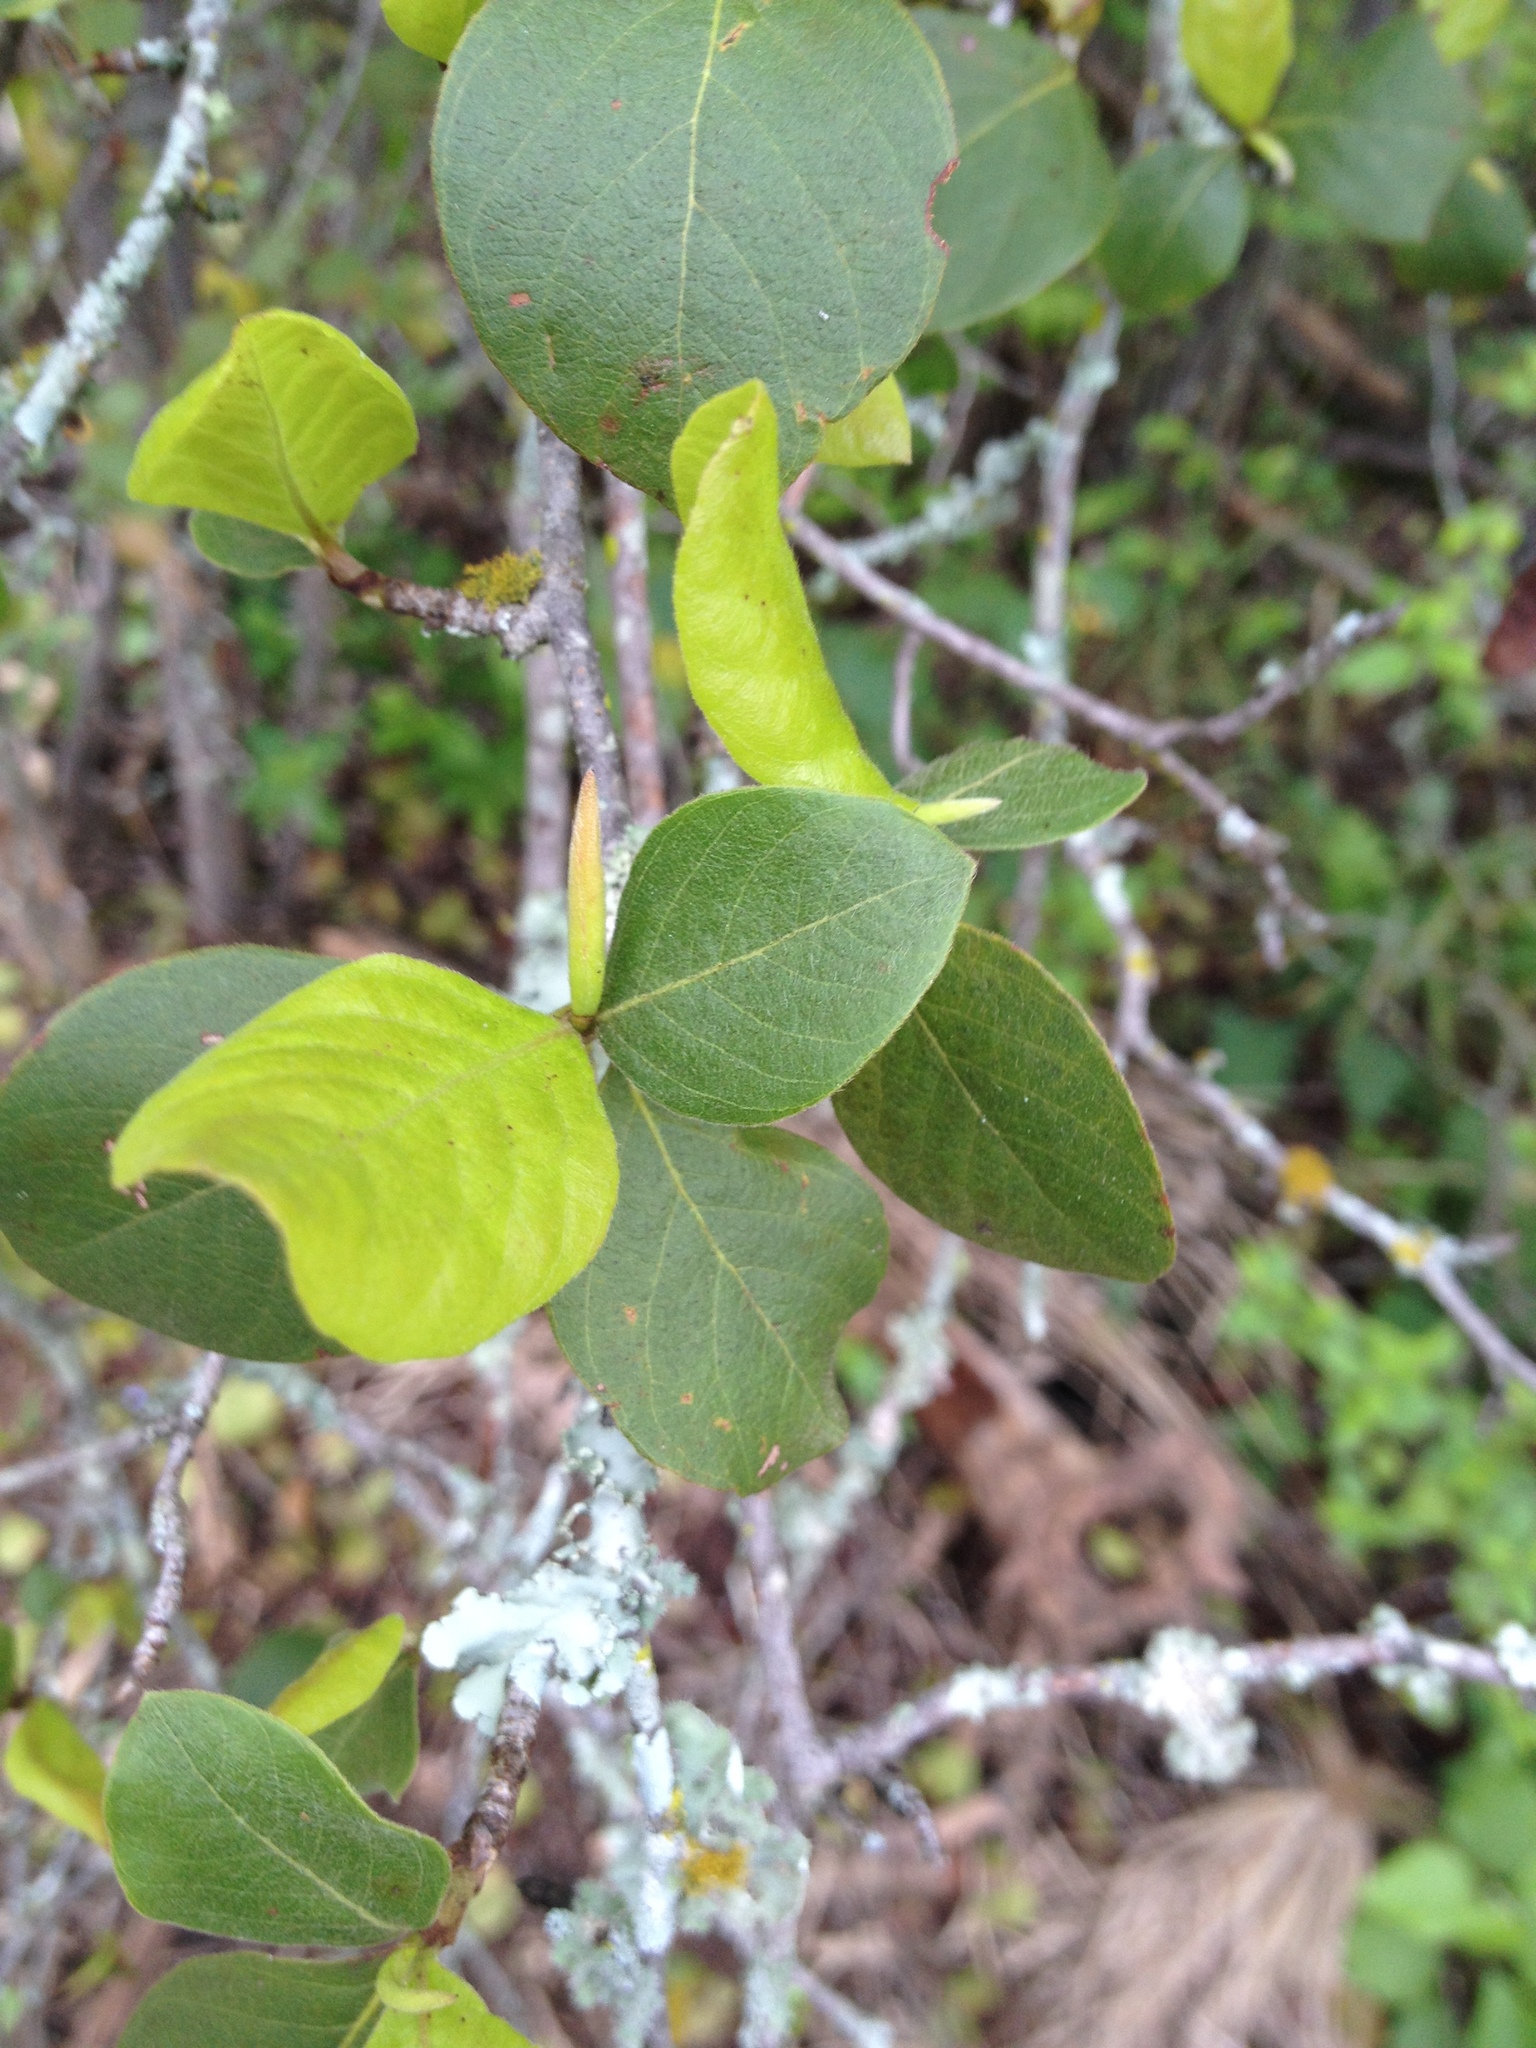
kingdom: Plantae
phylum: Tracheophyta
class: Magnoliopsida
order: Caryophyllales
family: Polygonaceae
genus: Salta
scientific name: Salta triflora
